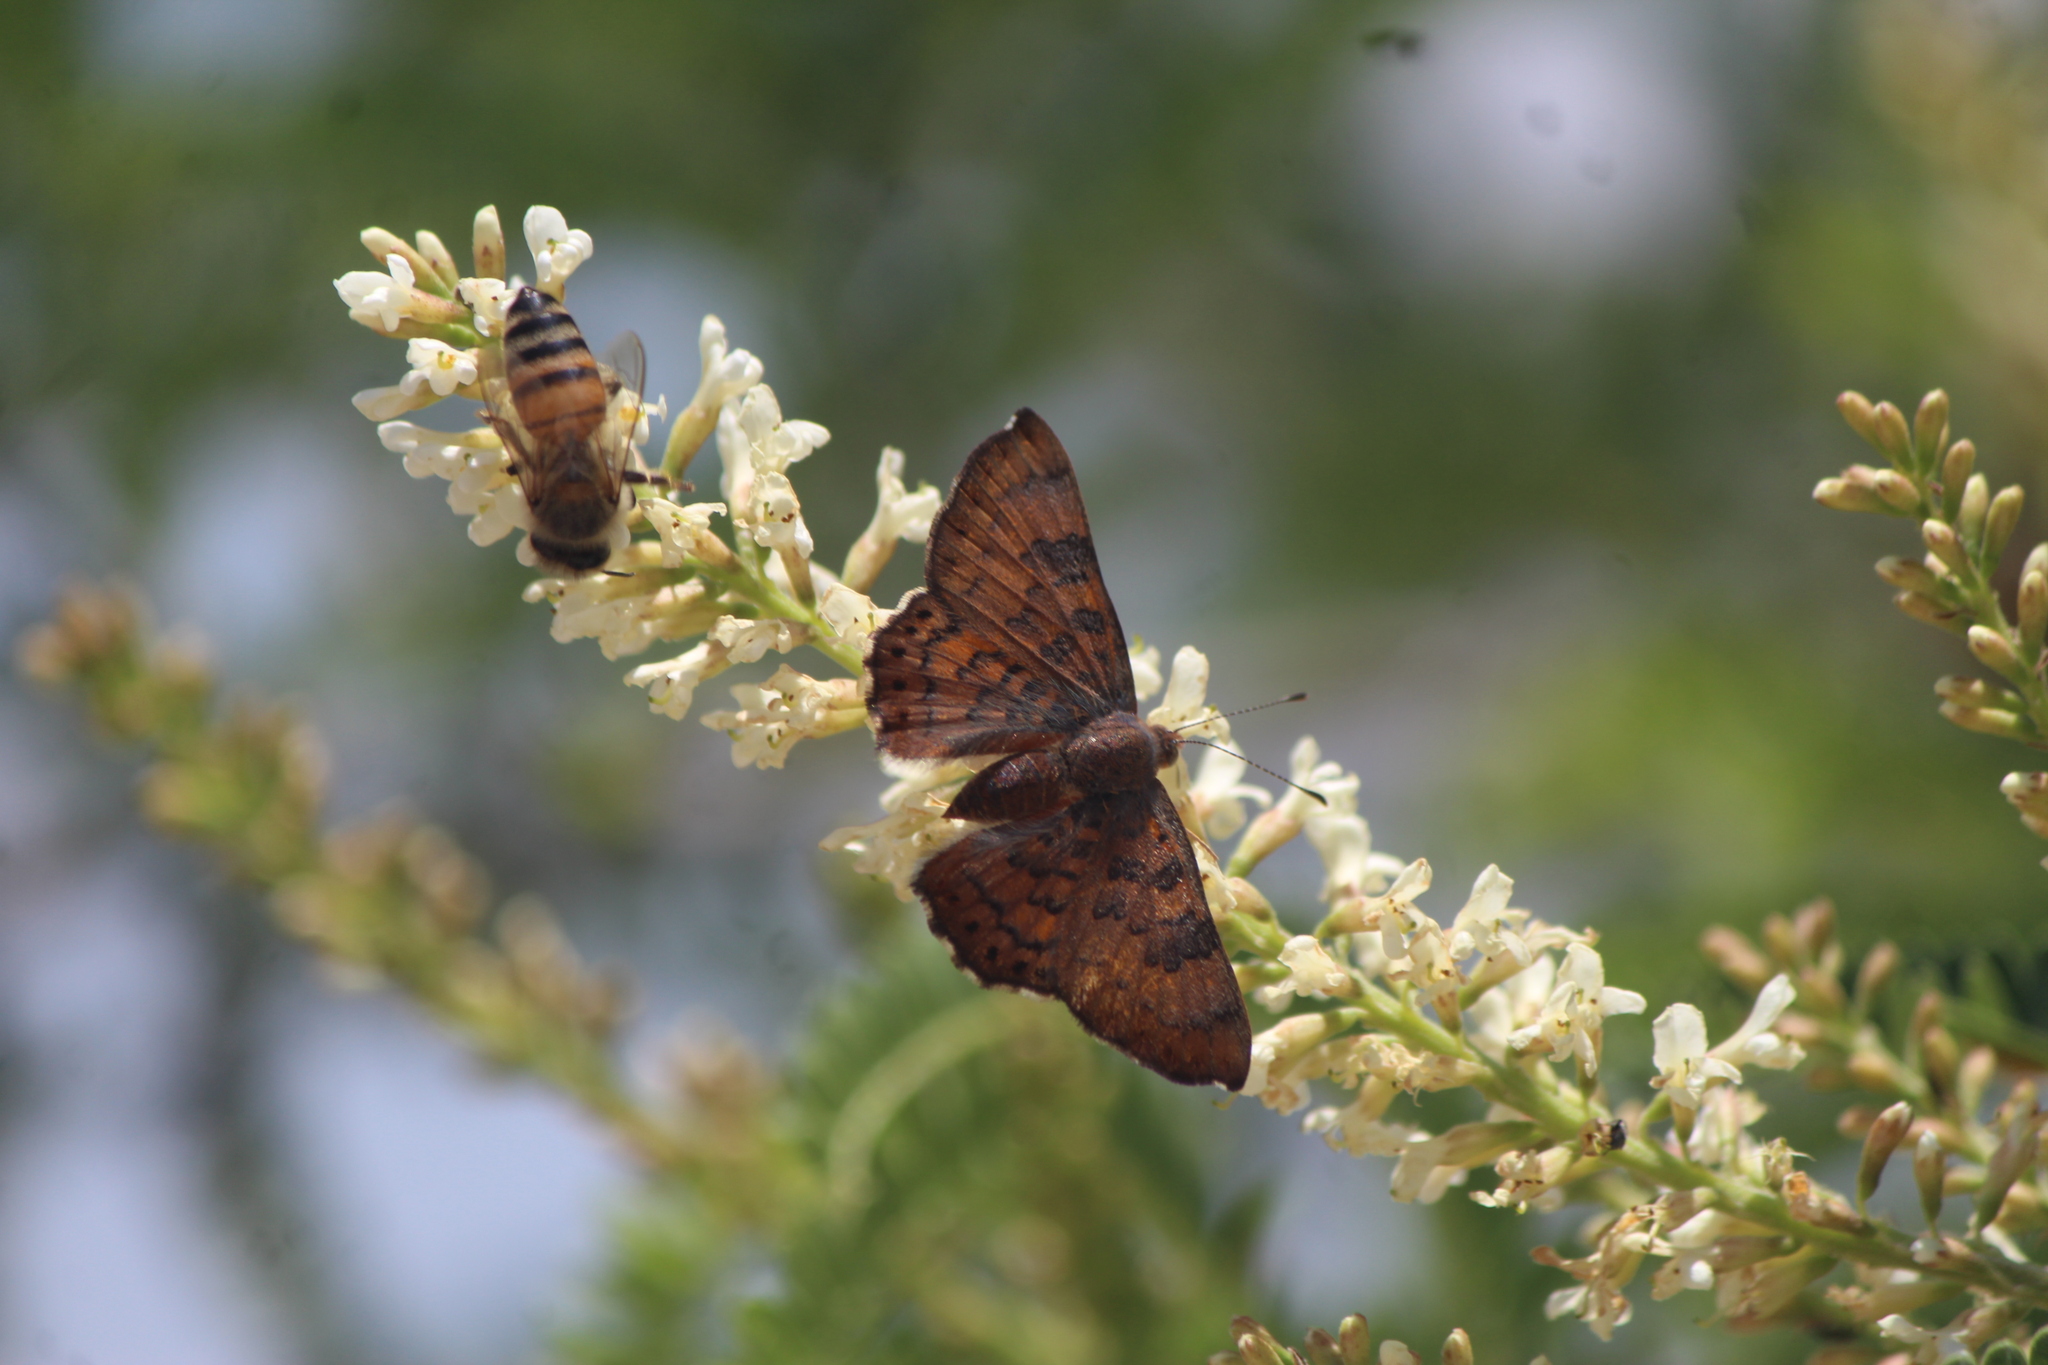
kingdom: Animalia
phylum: Arthropoda
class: Insecta
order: Lepidoptera
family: Riodinidae
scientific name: Riodinidae
